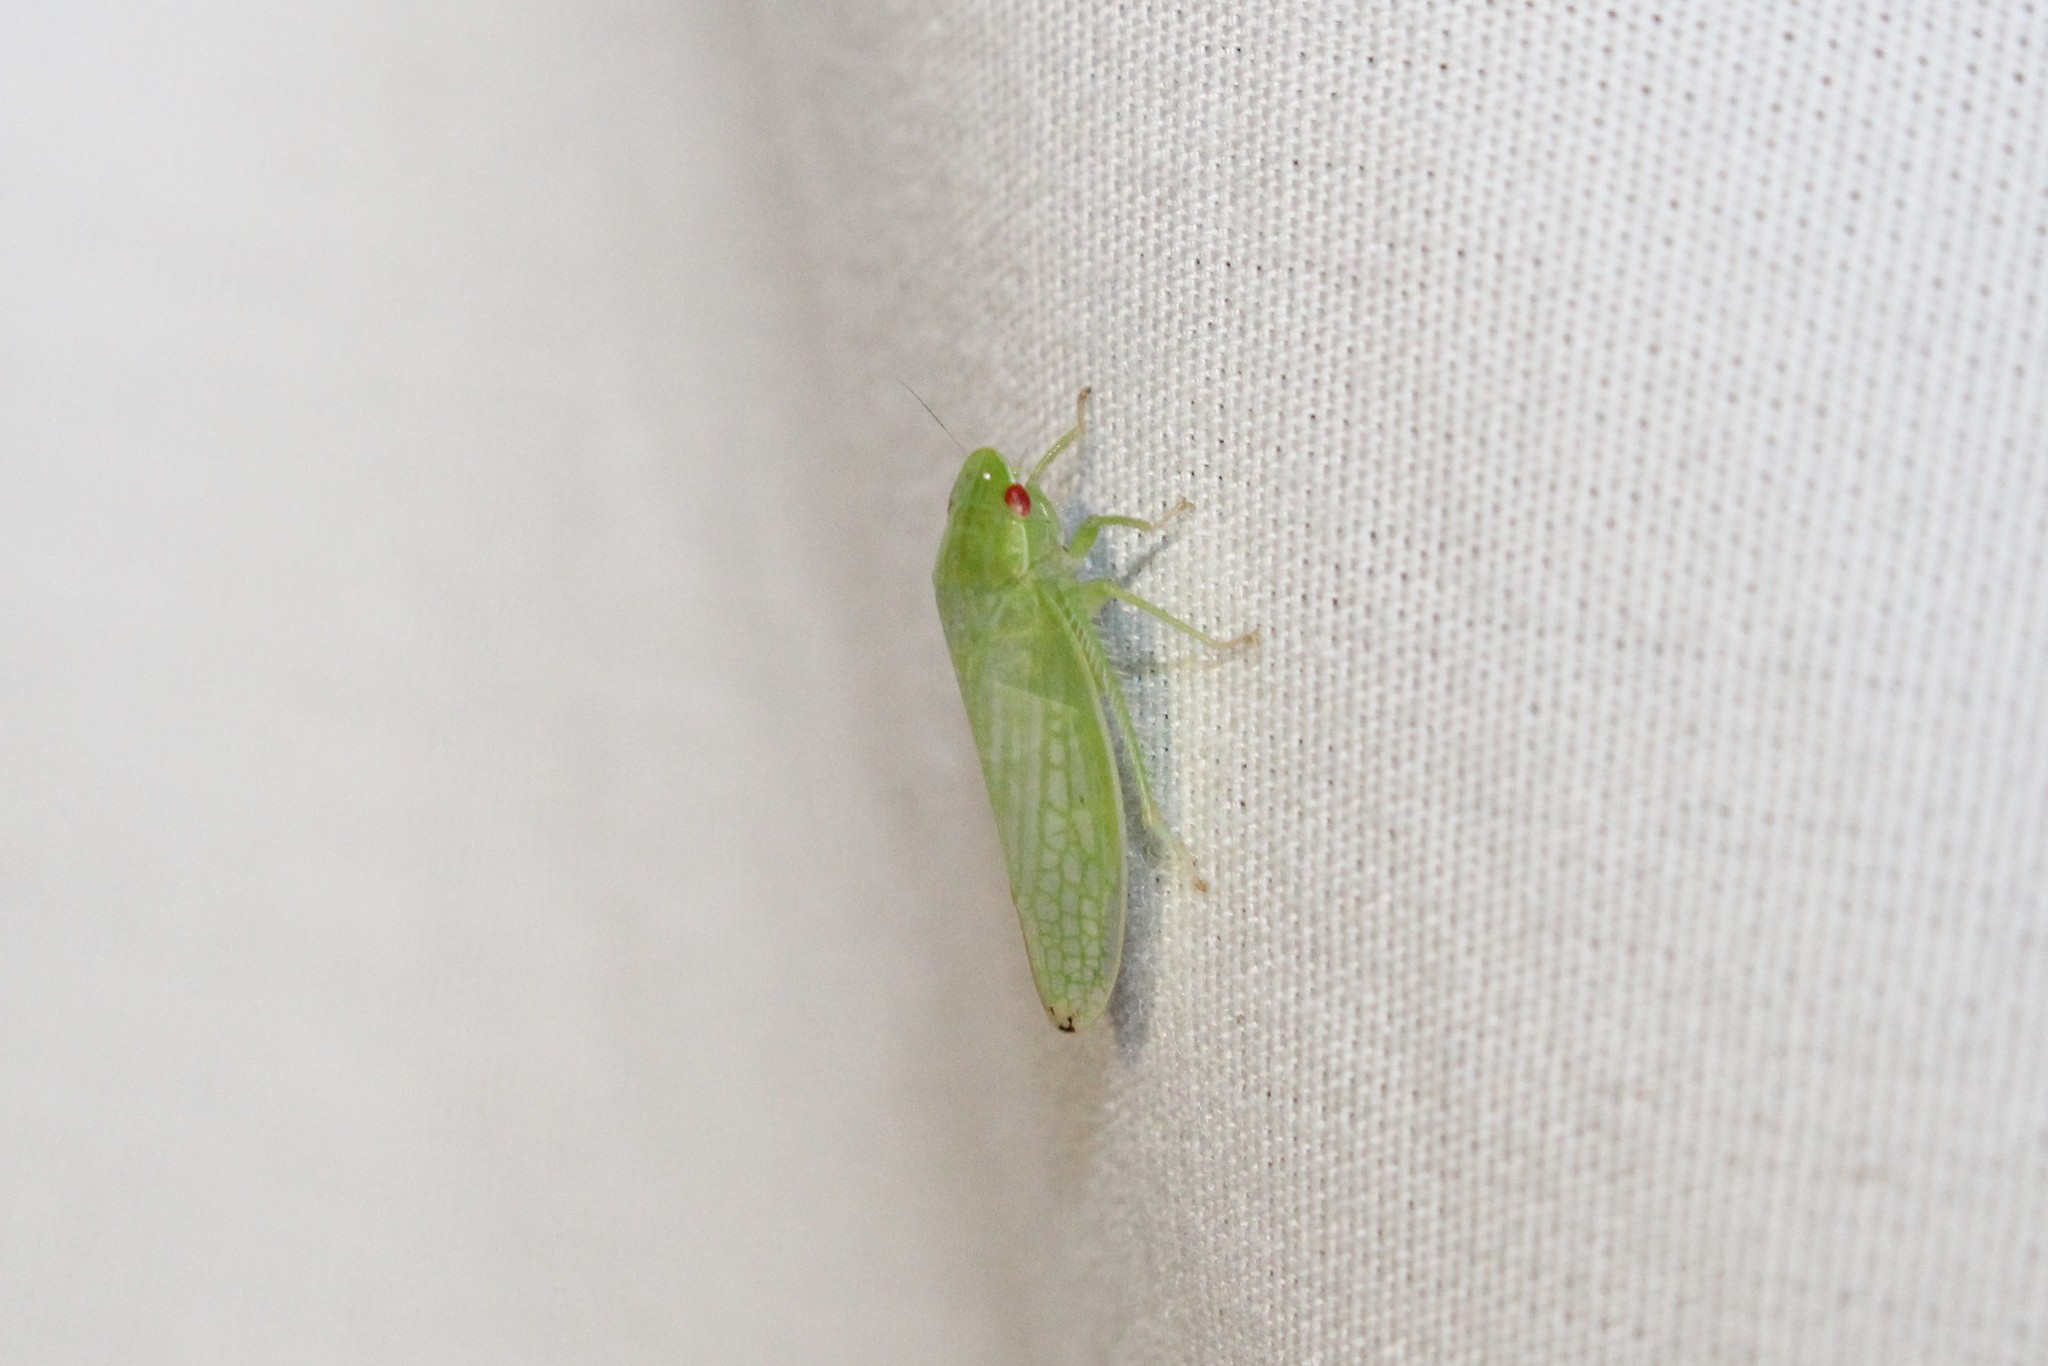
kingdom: Animalia
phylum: Arthropoda
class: Insecta
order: Hemiptera
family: Cicadellidae
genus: Gyponana
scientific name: Gyponana
